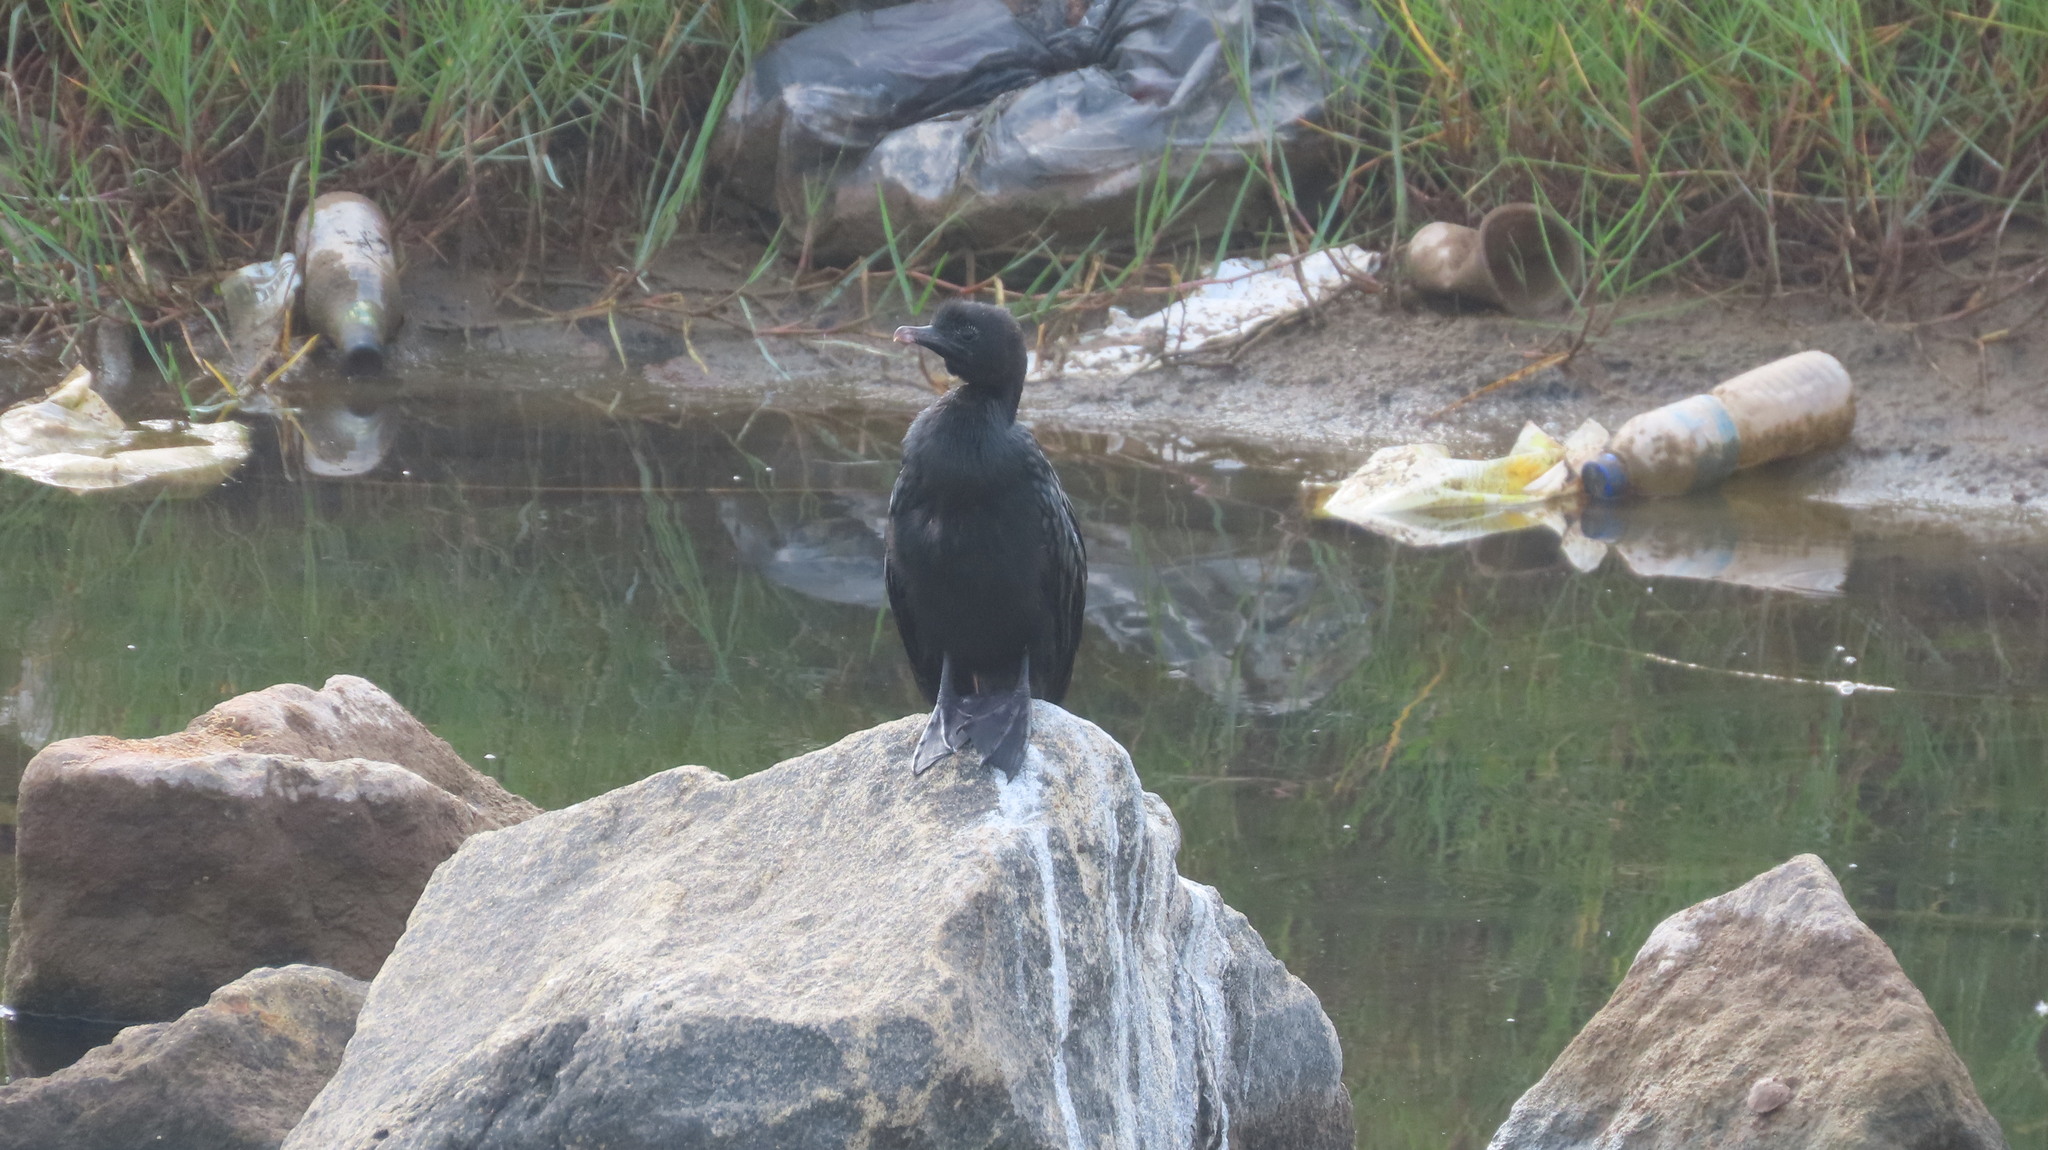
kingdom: Animalia
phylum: Chordata
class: Aves
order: Suliformes
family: Phalacrocoracidae
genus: Microcarbo
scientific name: Microcarbo niger
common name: Little cormorant
